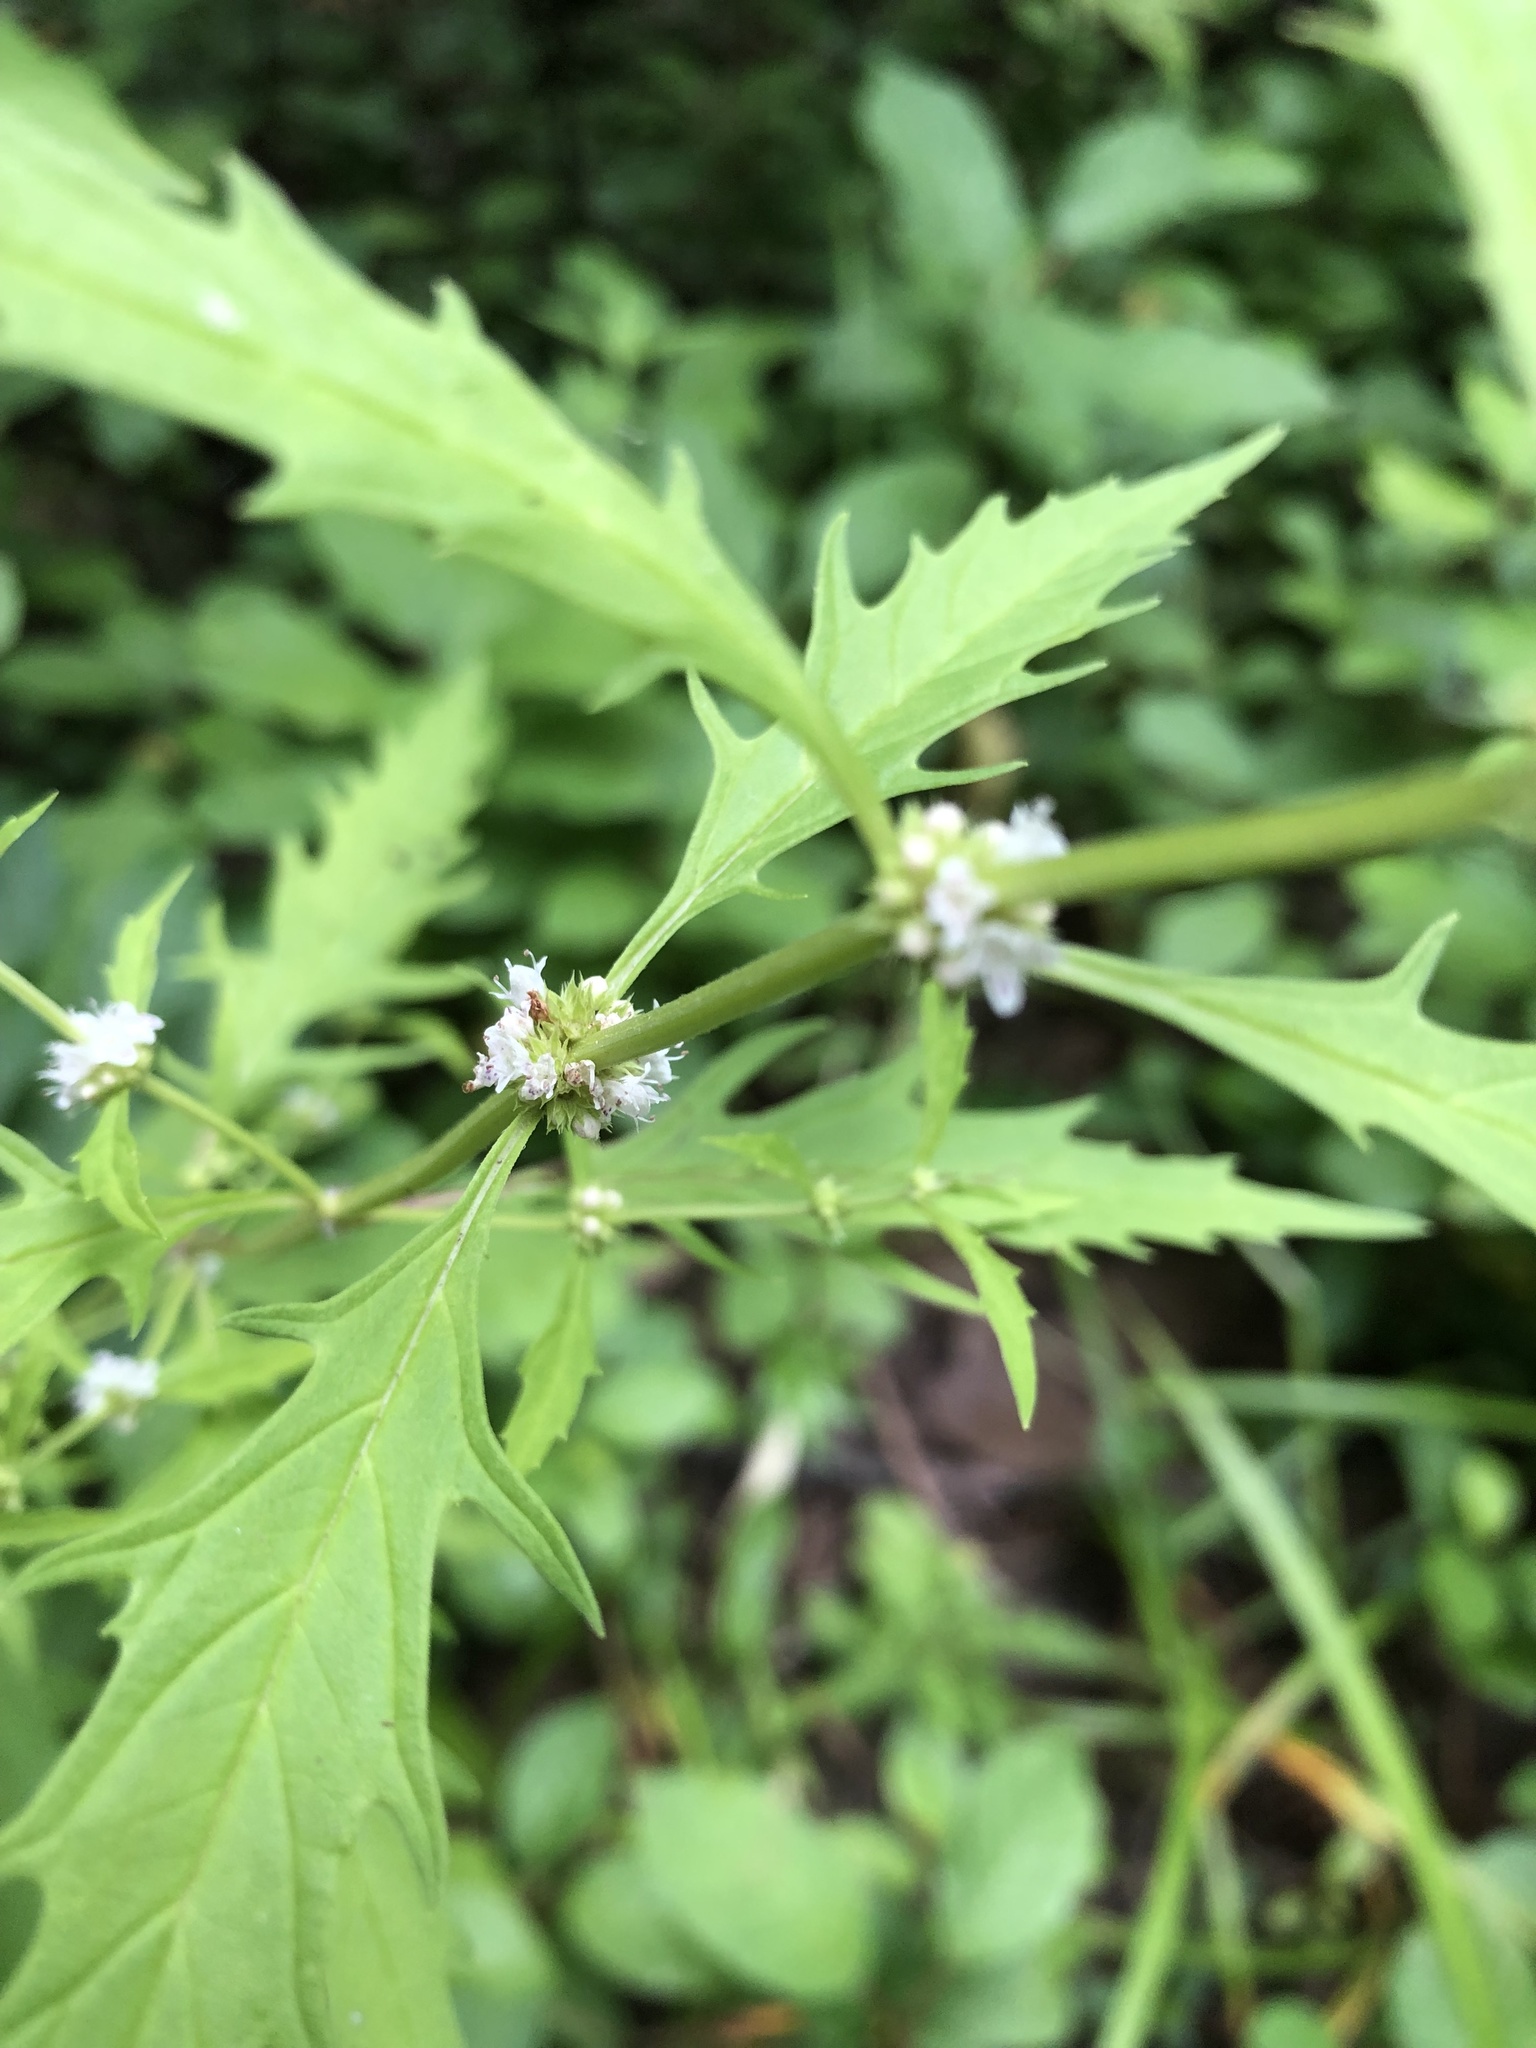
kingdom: Plantae
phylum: Tracheophyta
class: Magnoliopsida
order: Lamiales
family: Lamiaceae
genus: Lycopus
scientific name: Lycopus americanus
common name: American bugleweed
